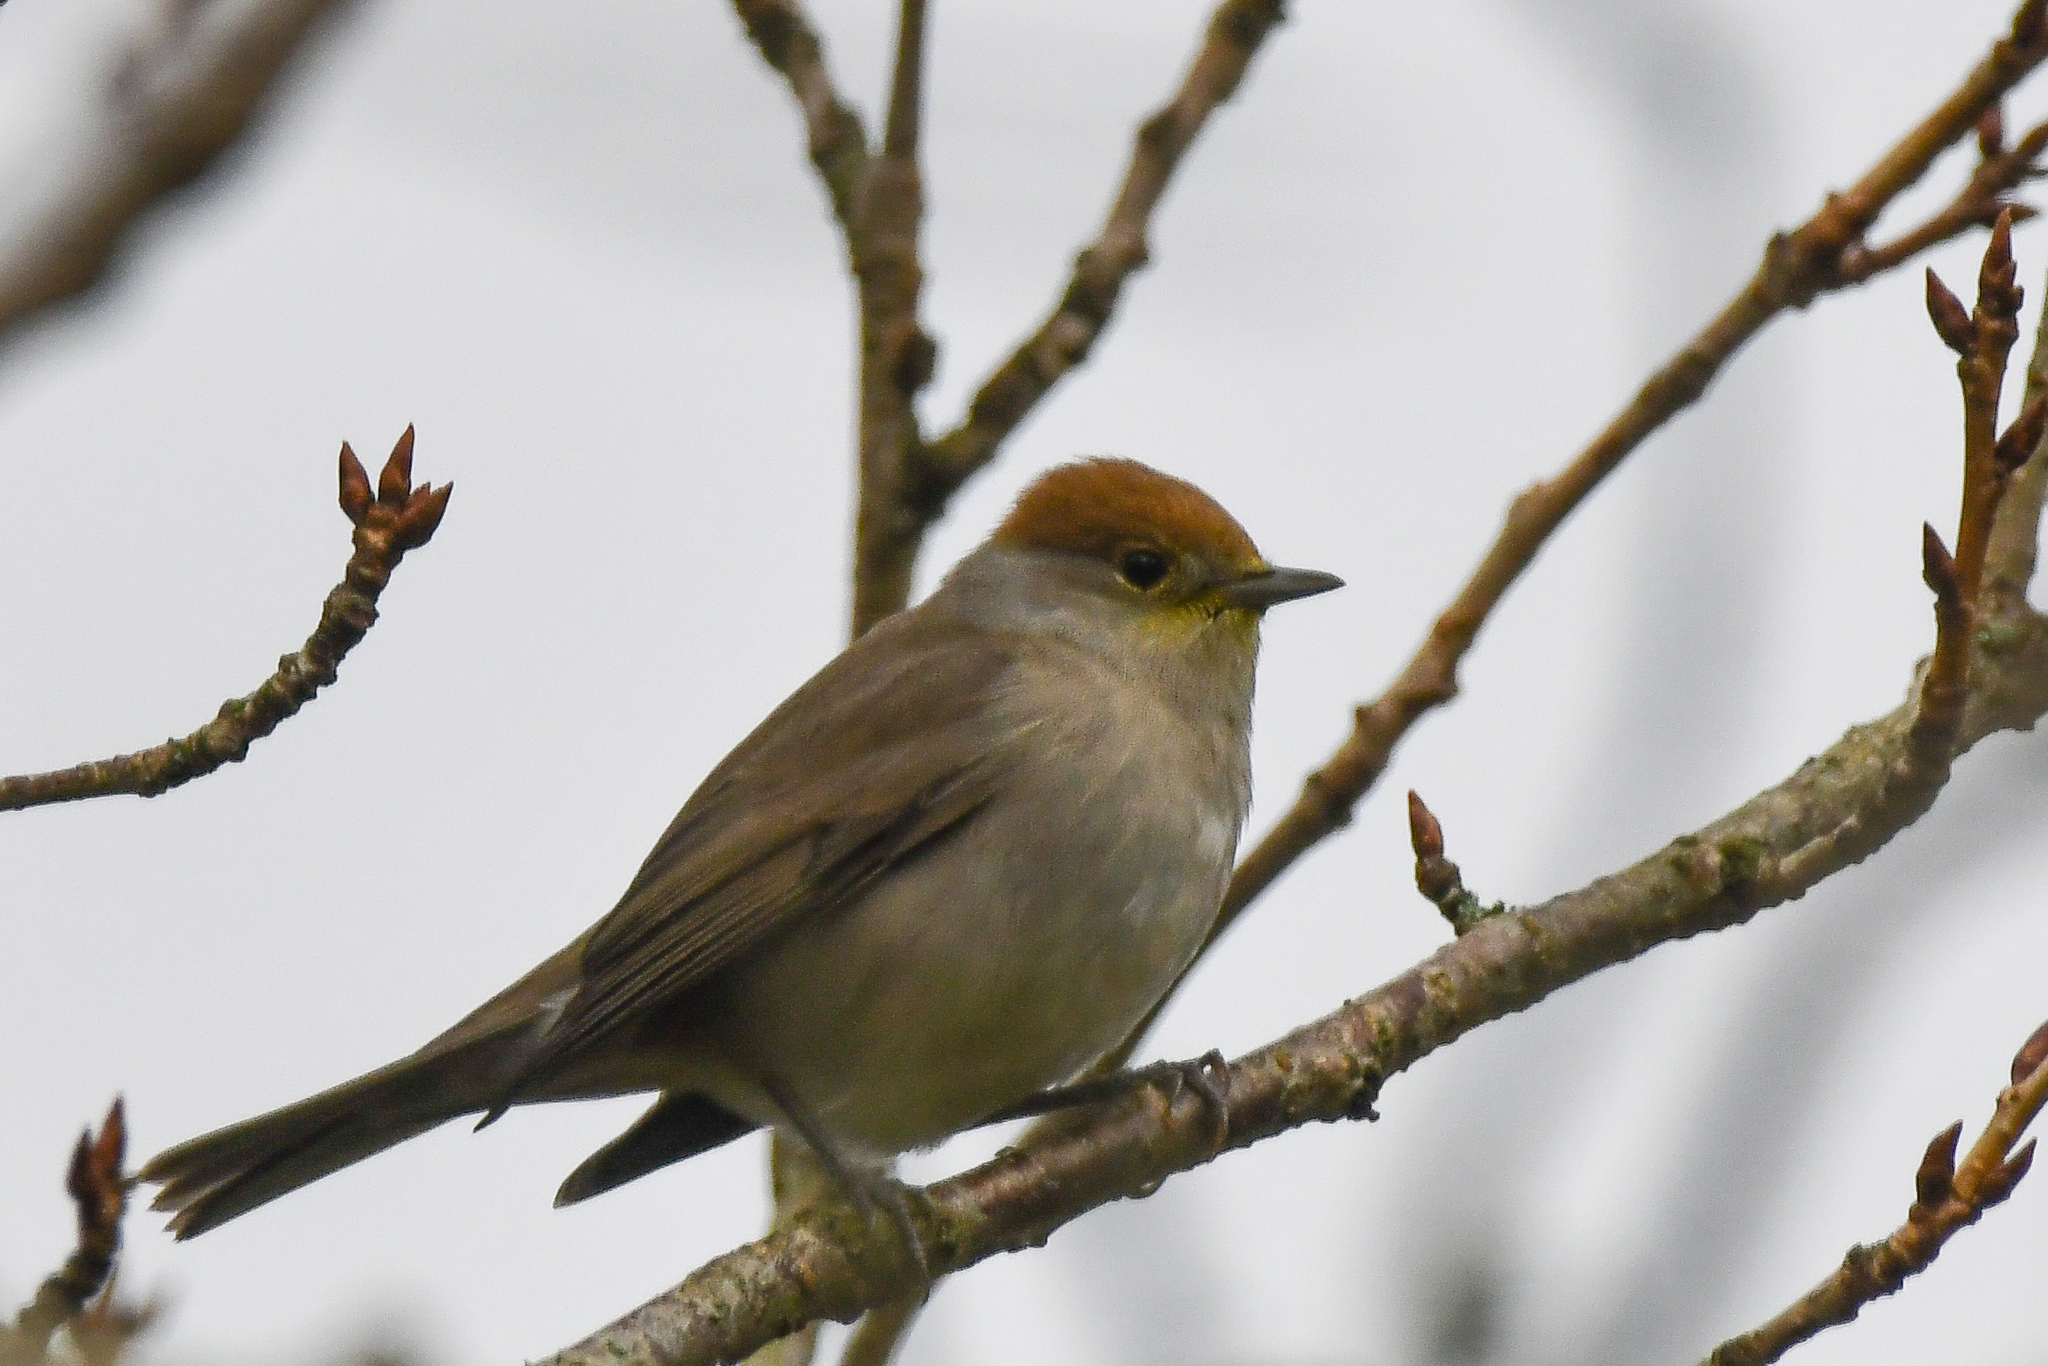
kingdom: Animalia
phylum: Chordata
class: Aves
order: Passeriformes
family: Sylviidae
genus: Sylvia
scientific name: Sylvia atricapilla
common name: Eurasian blackcap
